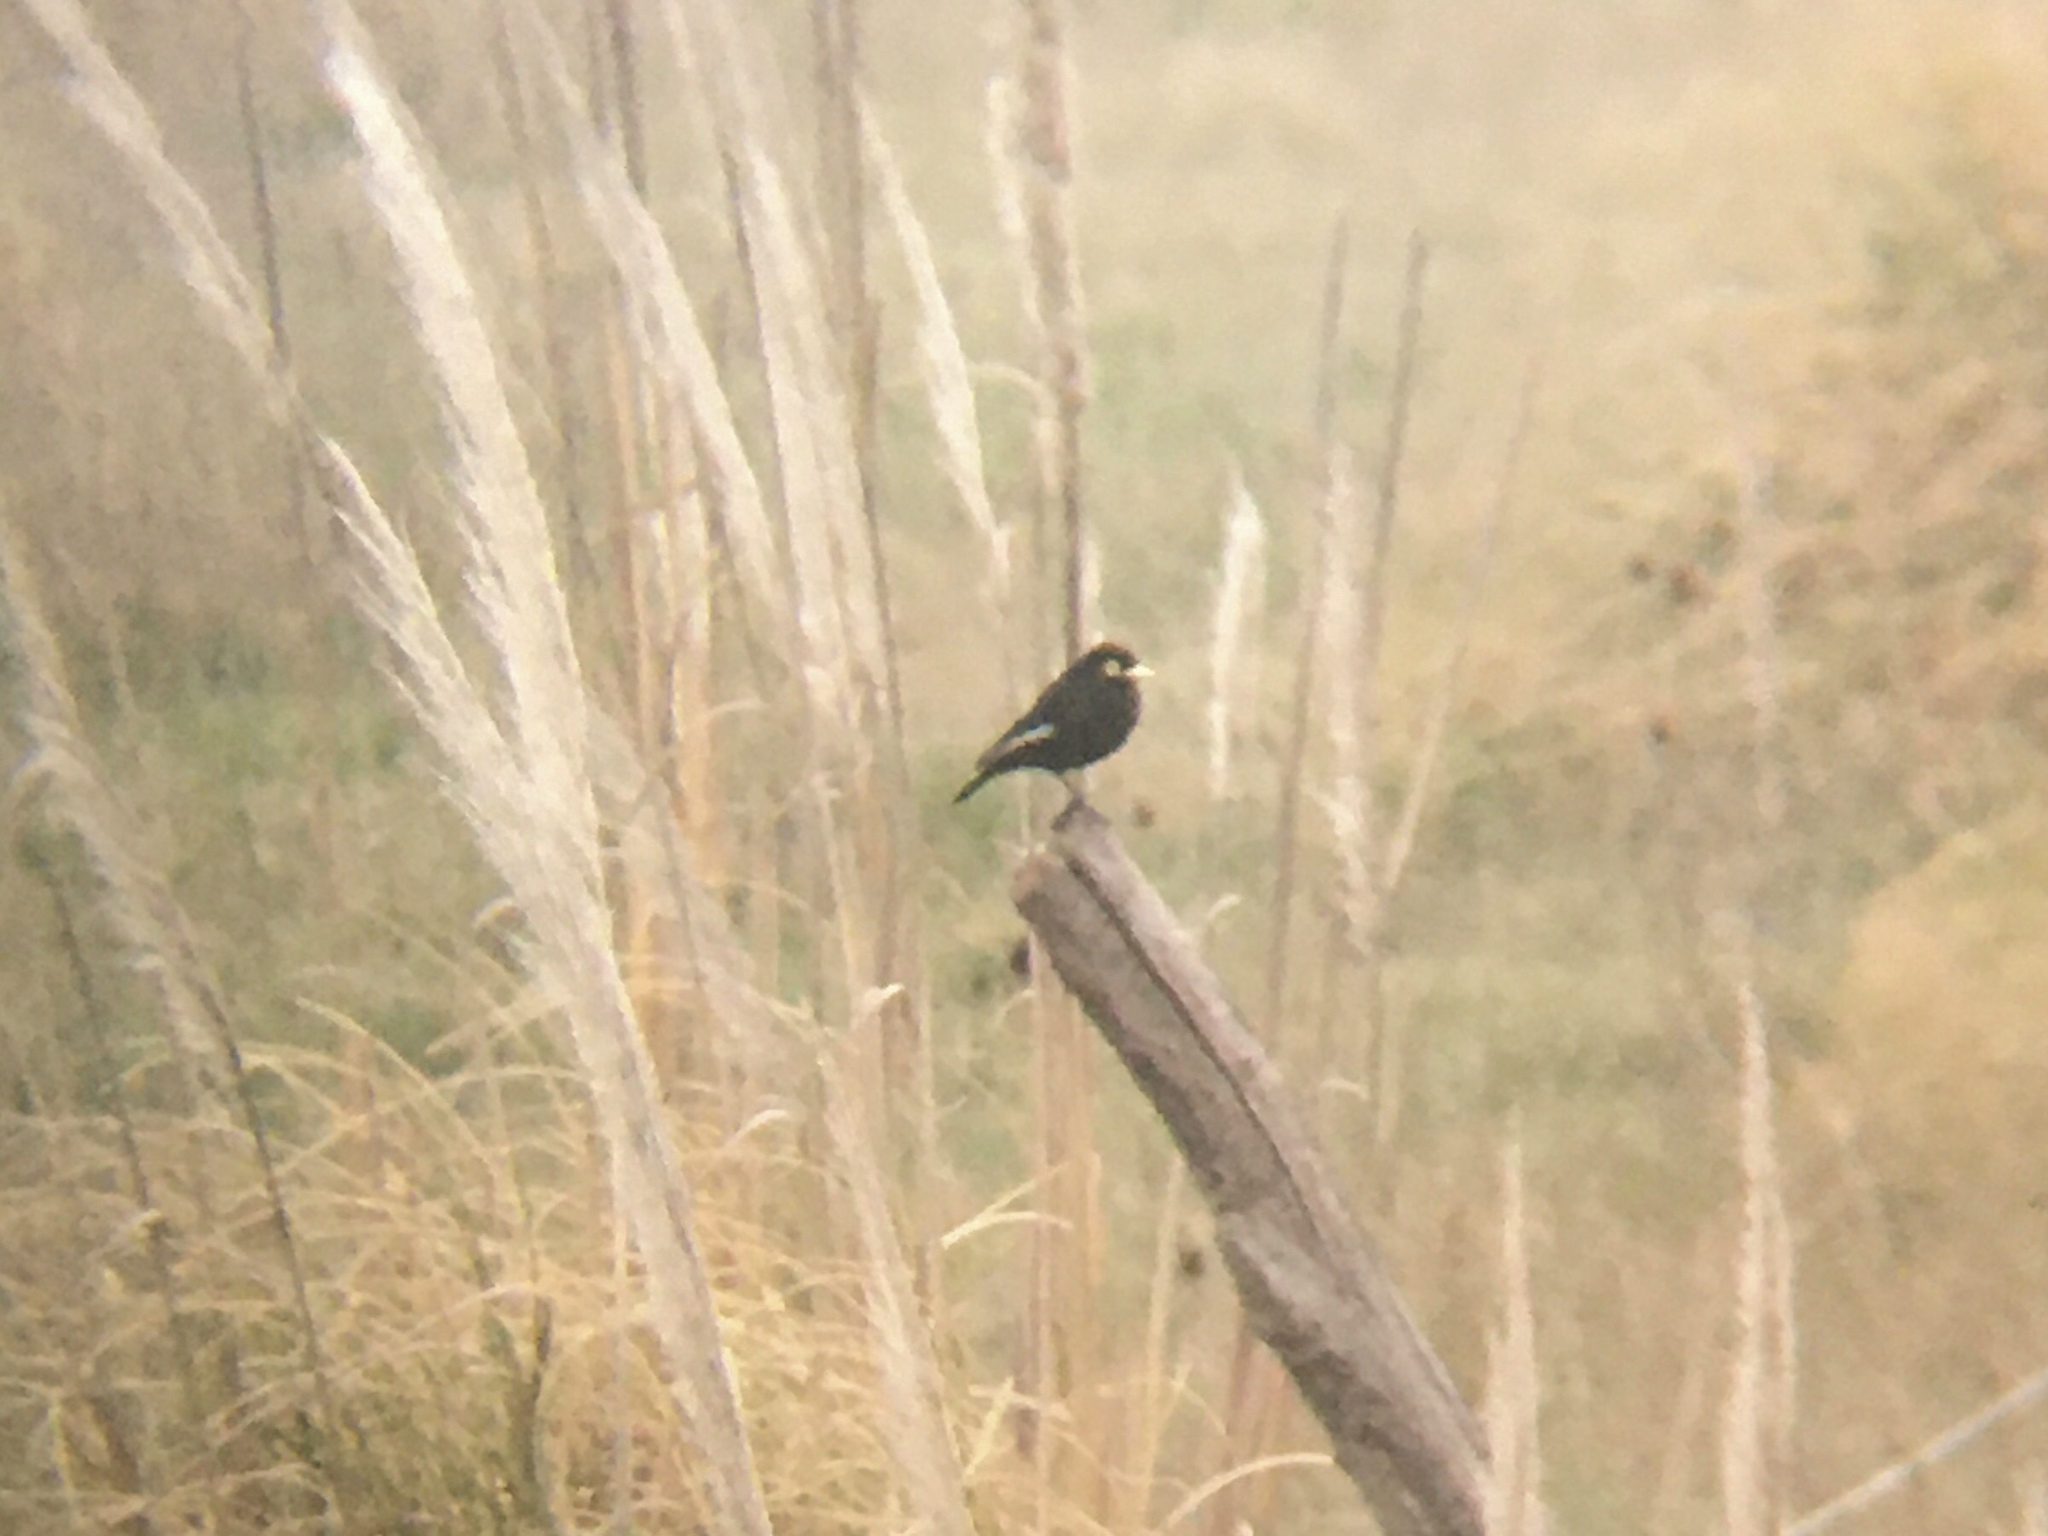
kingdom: Animalia
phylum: Chordata
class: Aves
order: Passeriformes
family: Tyrannidae
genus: Hymenops
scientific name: Hymenops perspicillatus
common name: Spectacled tyrant
